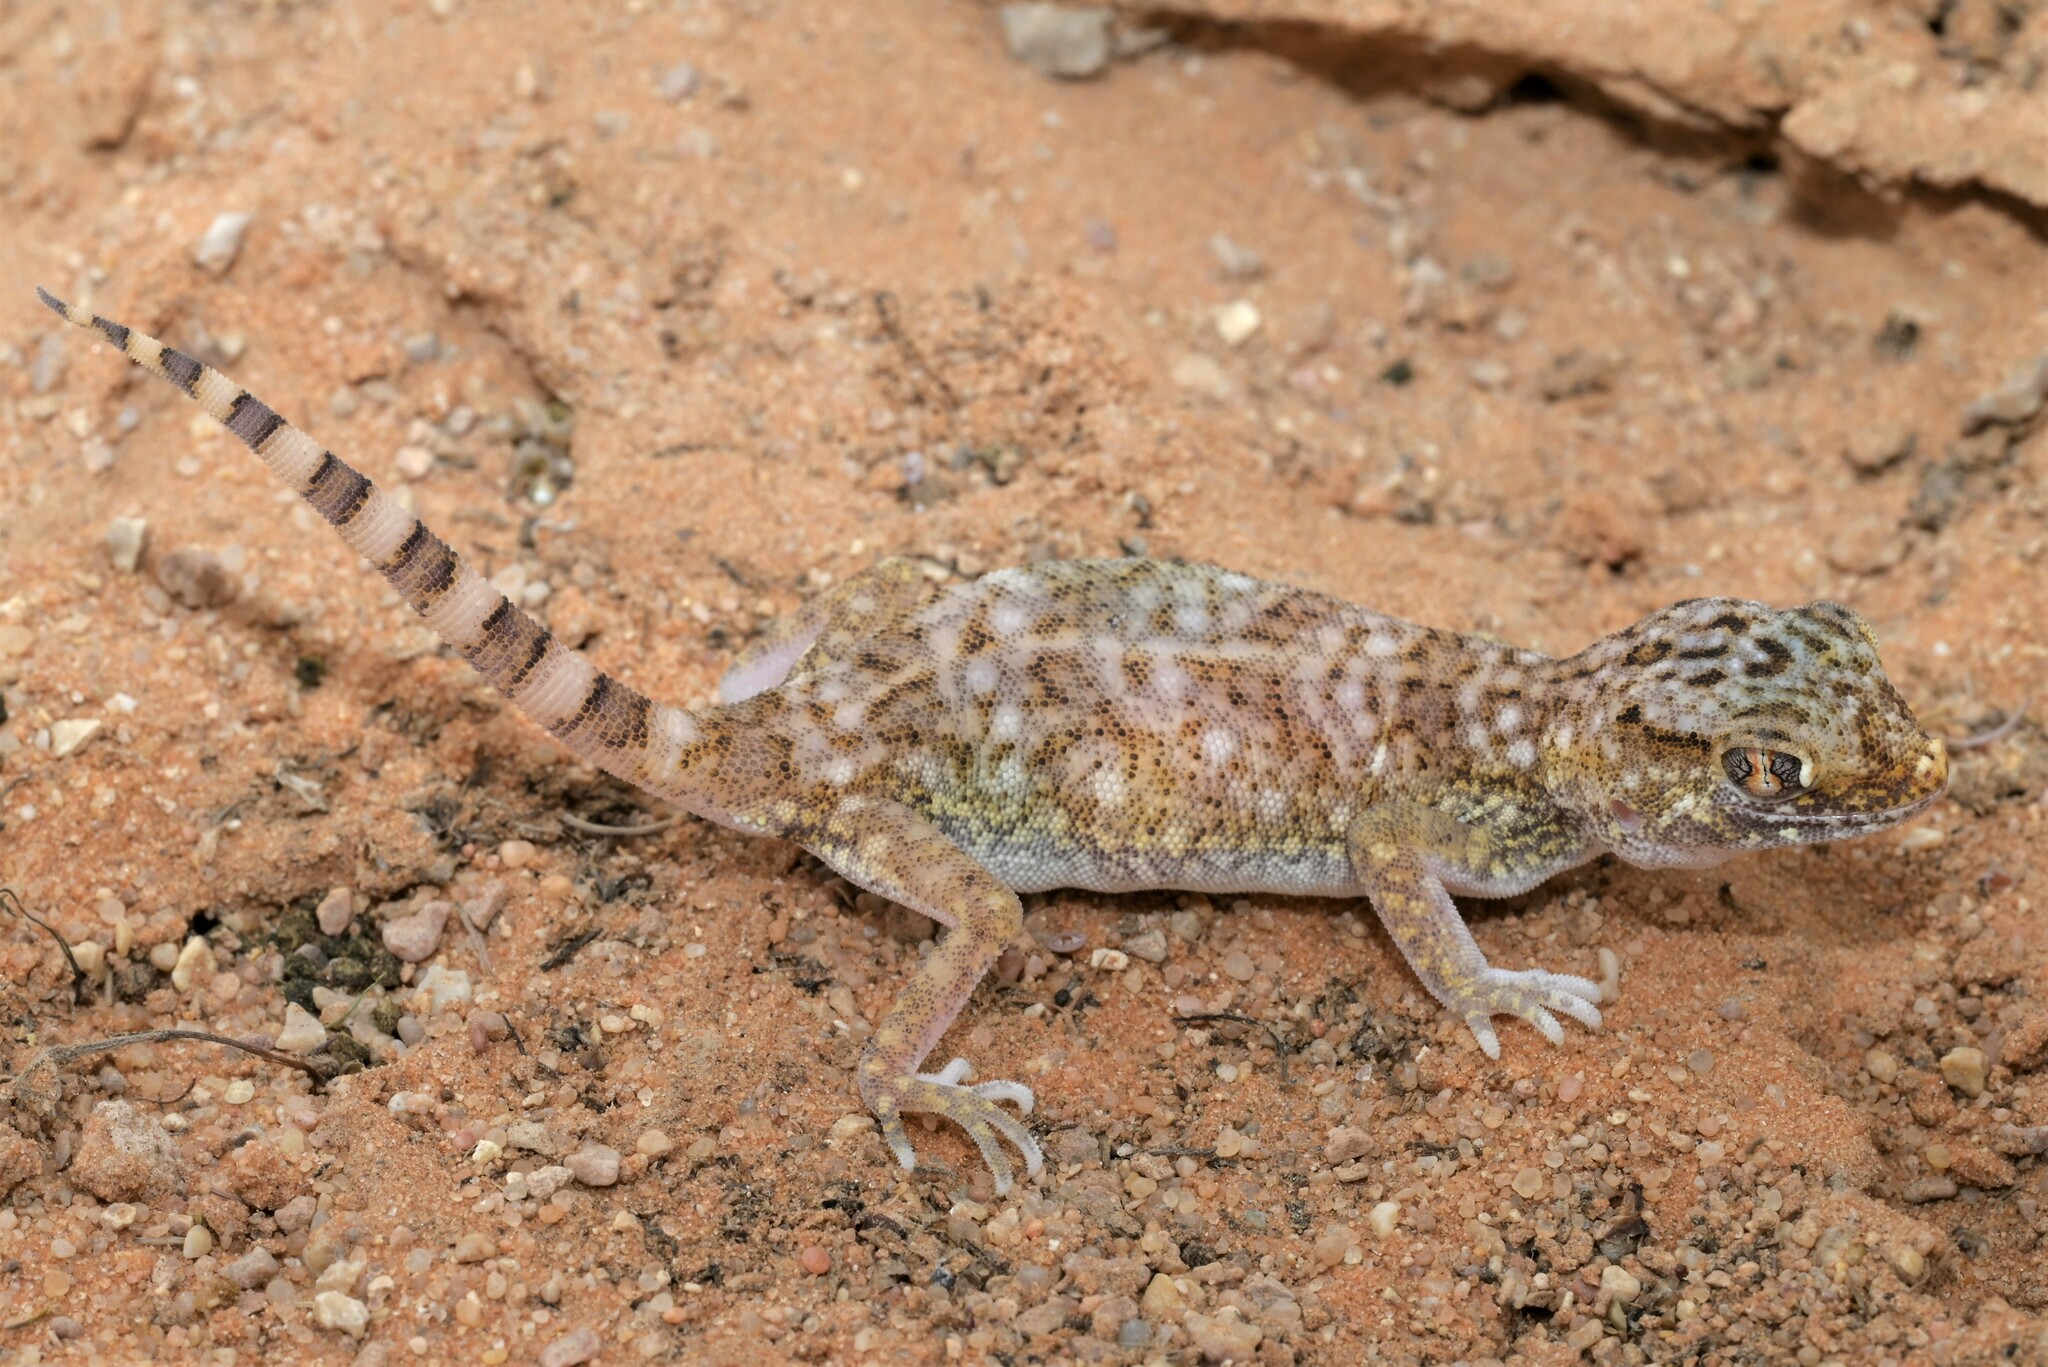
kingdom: Animalia
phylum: Chordata
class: Squamata
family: Gekkonidae
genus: Stenodactylus
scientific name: Stenodactylus slevini
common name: Slevin's sand gecko
